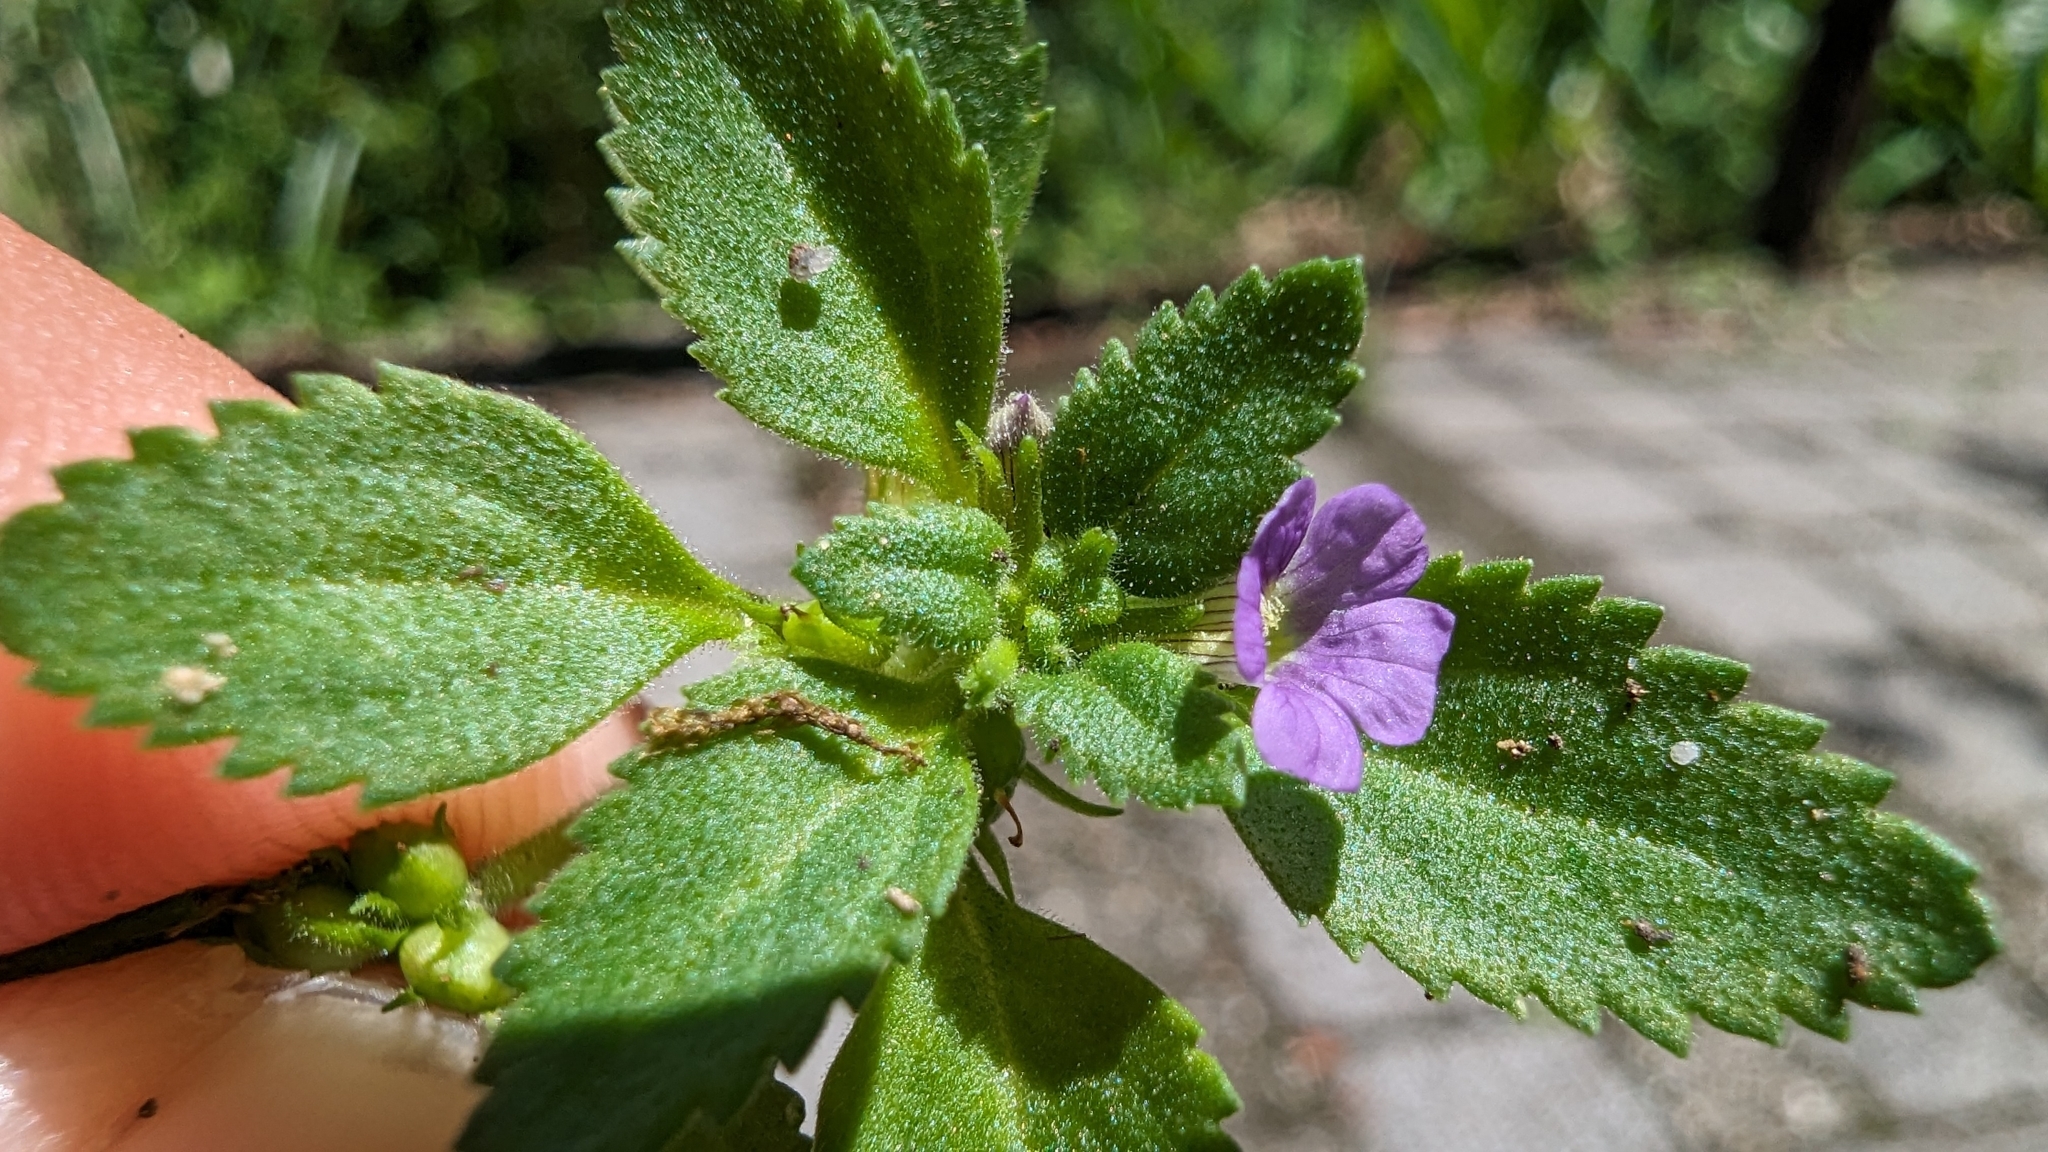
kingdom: Plantae
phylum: Tracheophyta
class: Magnoliopsida
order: Lamiales
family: Plantaginaceae
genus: Stemodia
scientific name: Stemodia verticillata
